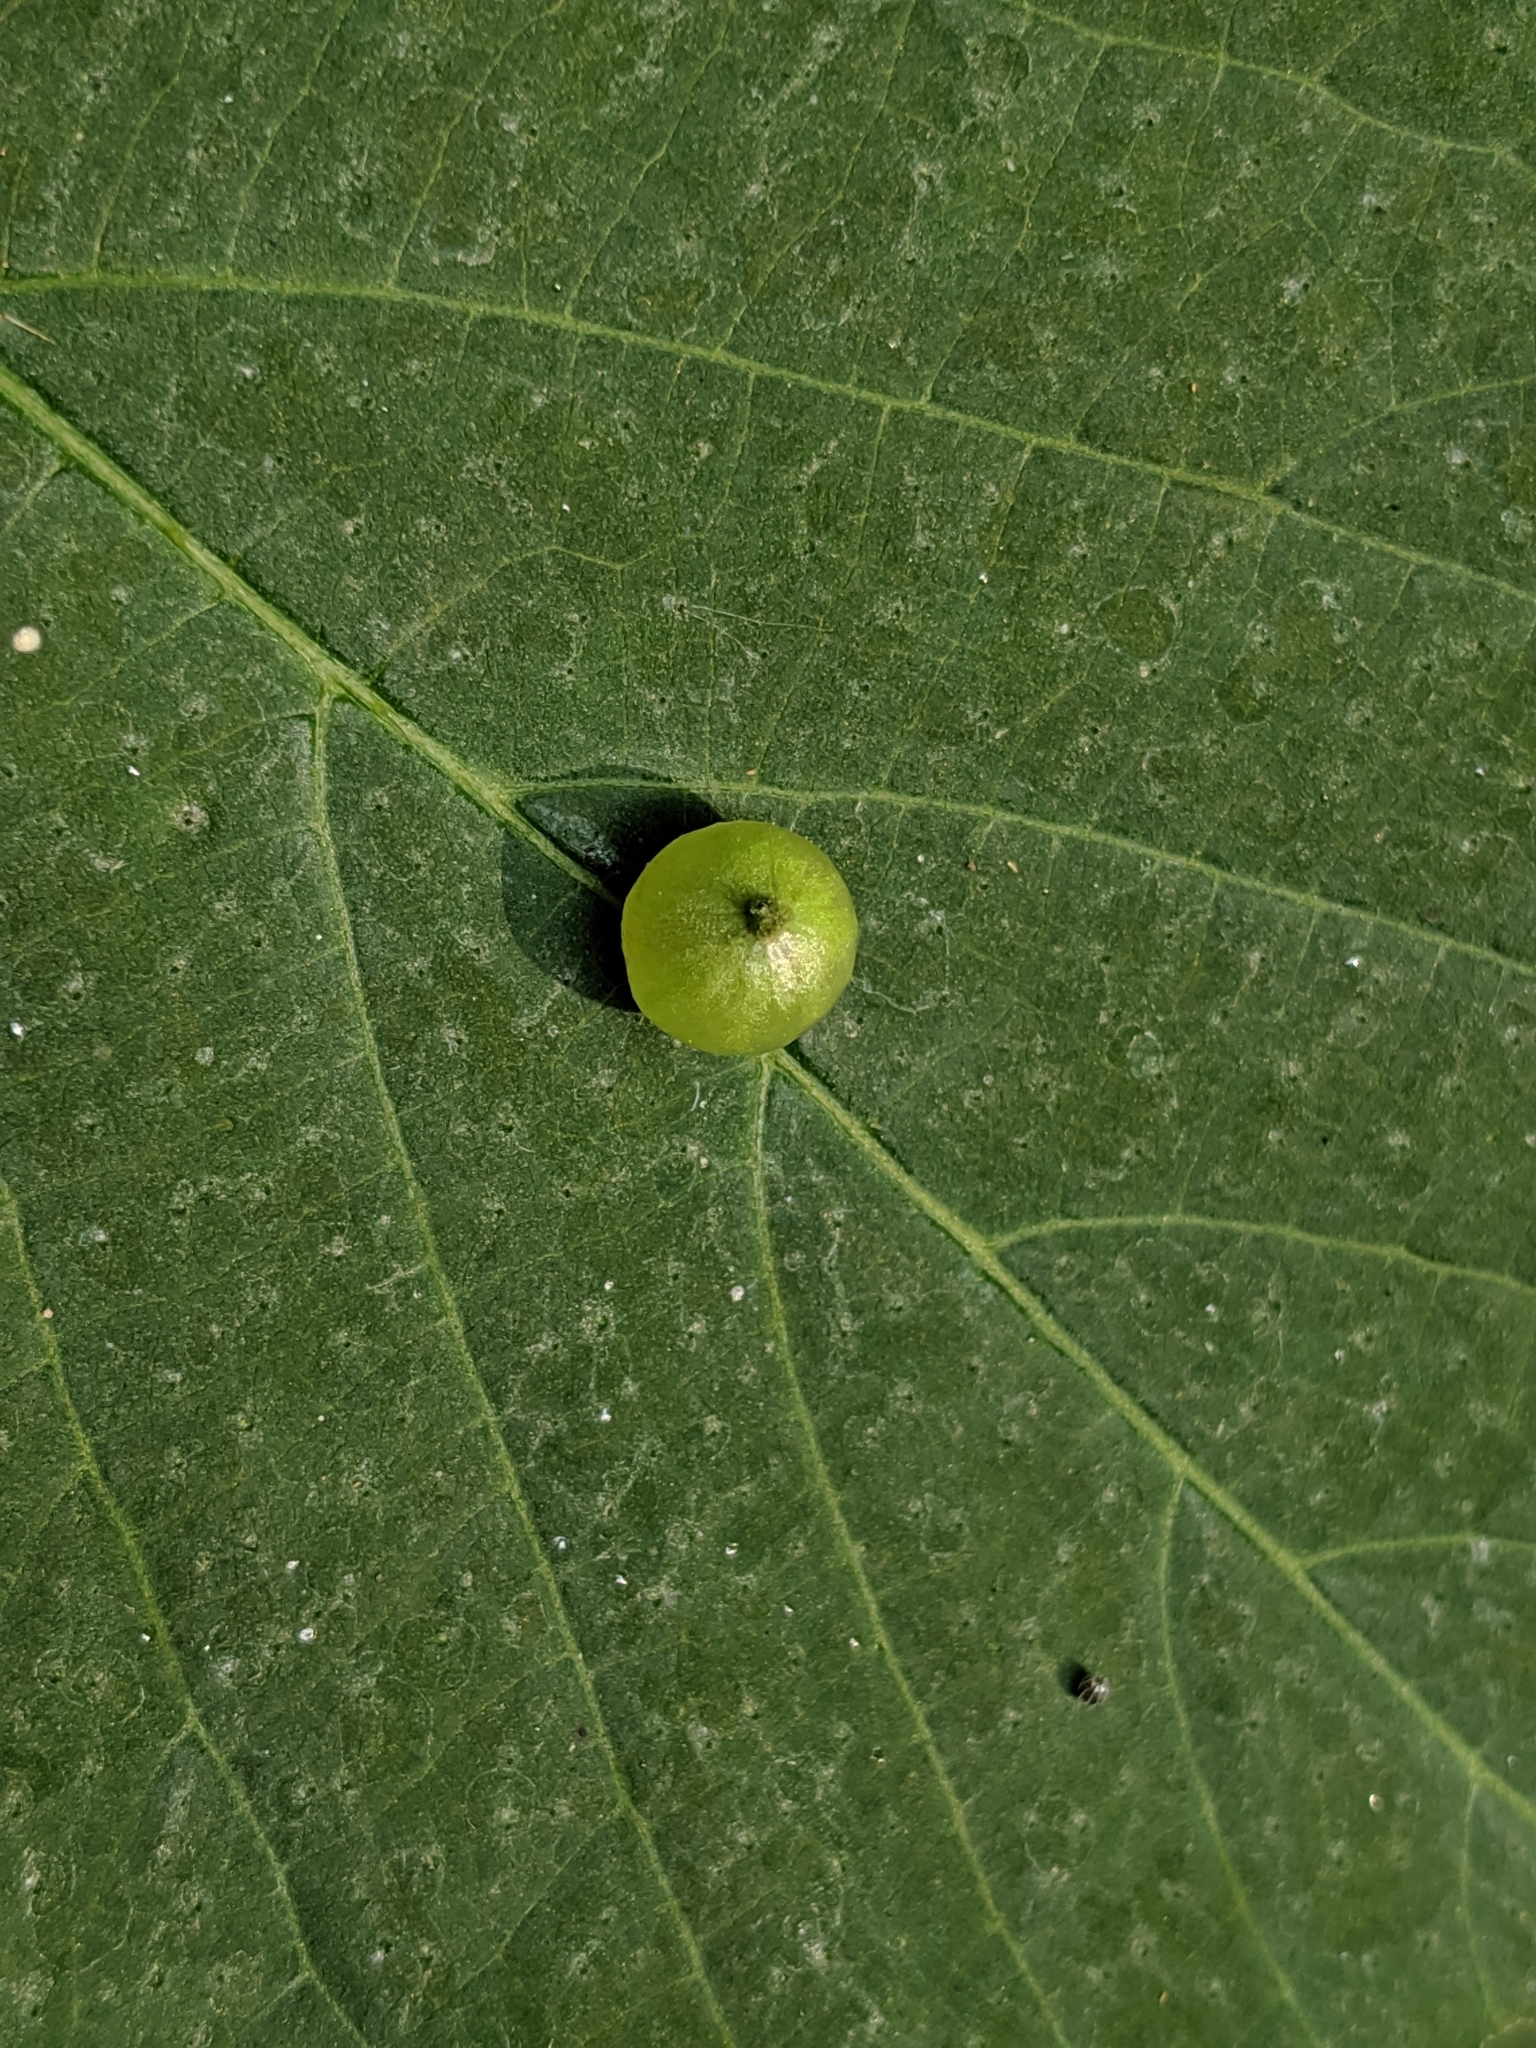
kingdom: Animalia
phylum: Arthropoda
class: Insecta
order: Diptera
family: Cecidomyiidae
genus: Dasineura
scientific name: Dasineura investita
